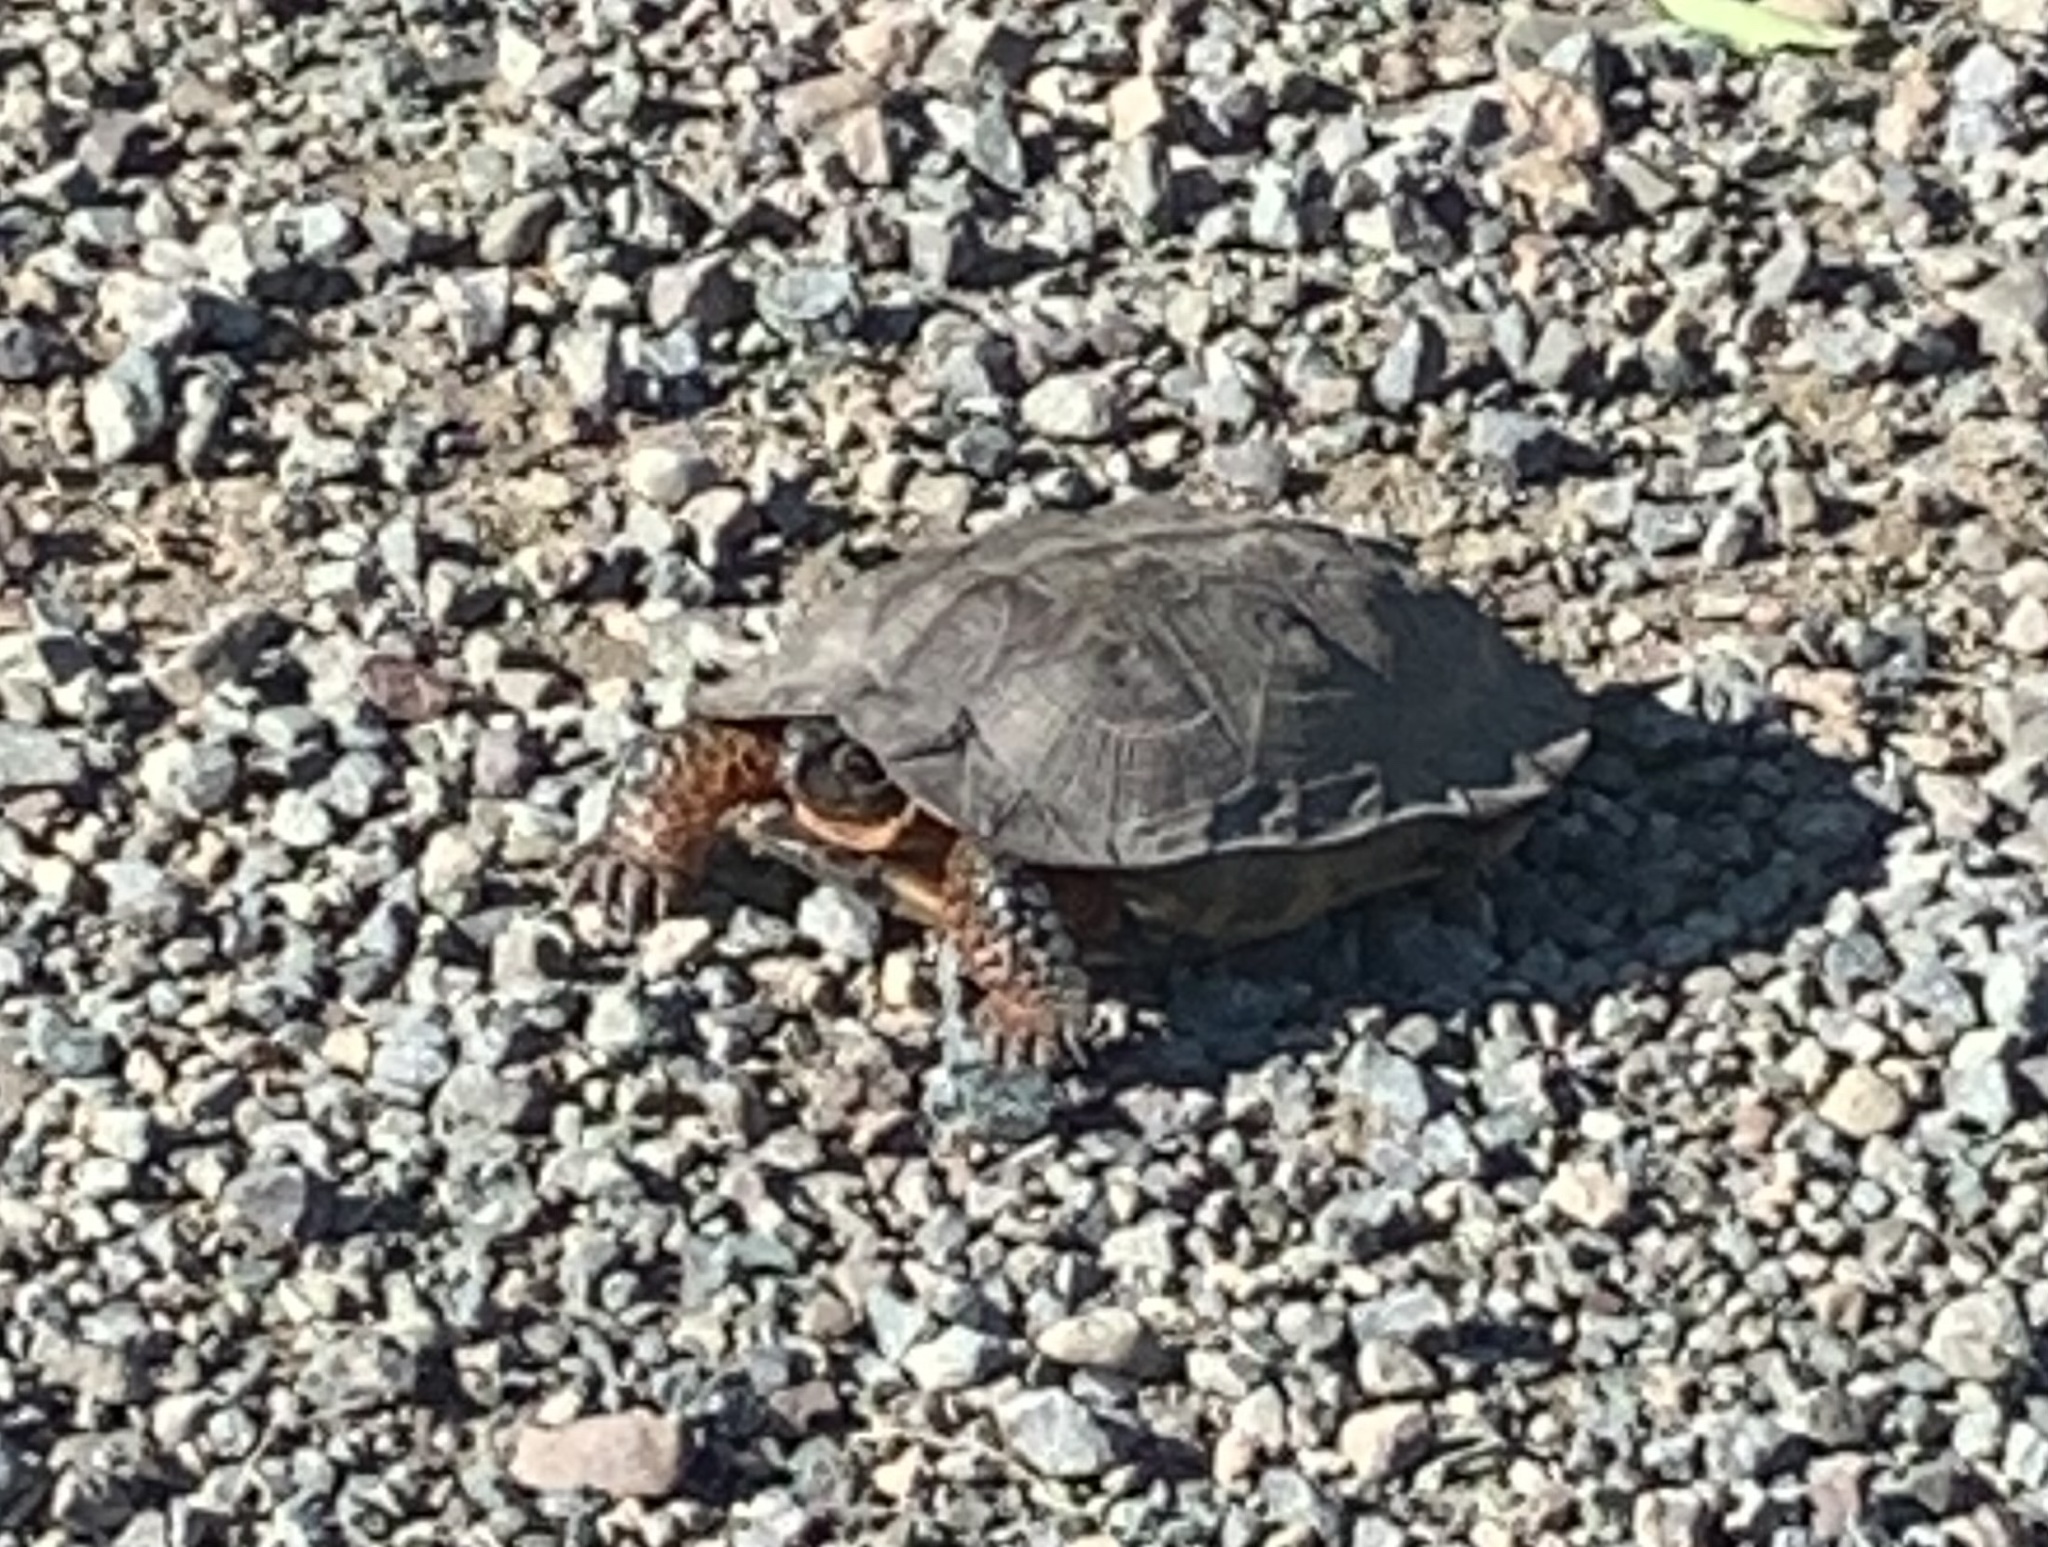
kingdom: Animalia
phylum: Chordata
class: Testudines
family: Emydidae
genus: Glyptemys
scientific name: Glyptemys insculpta
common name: Wood turtle
